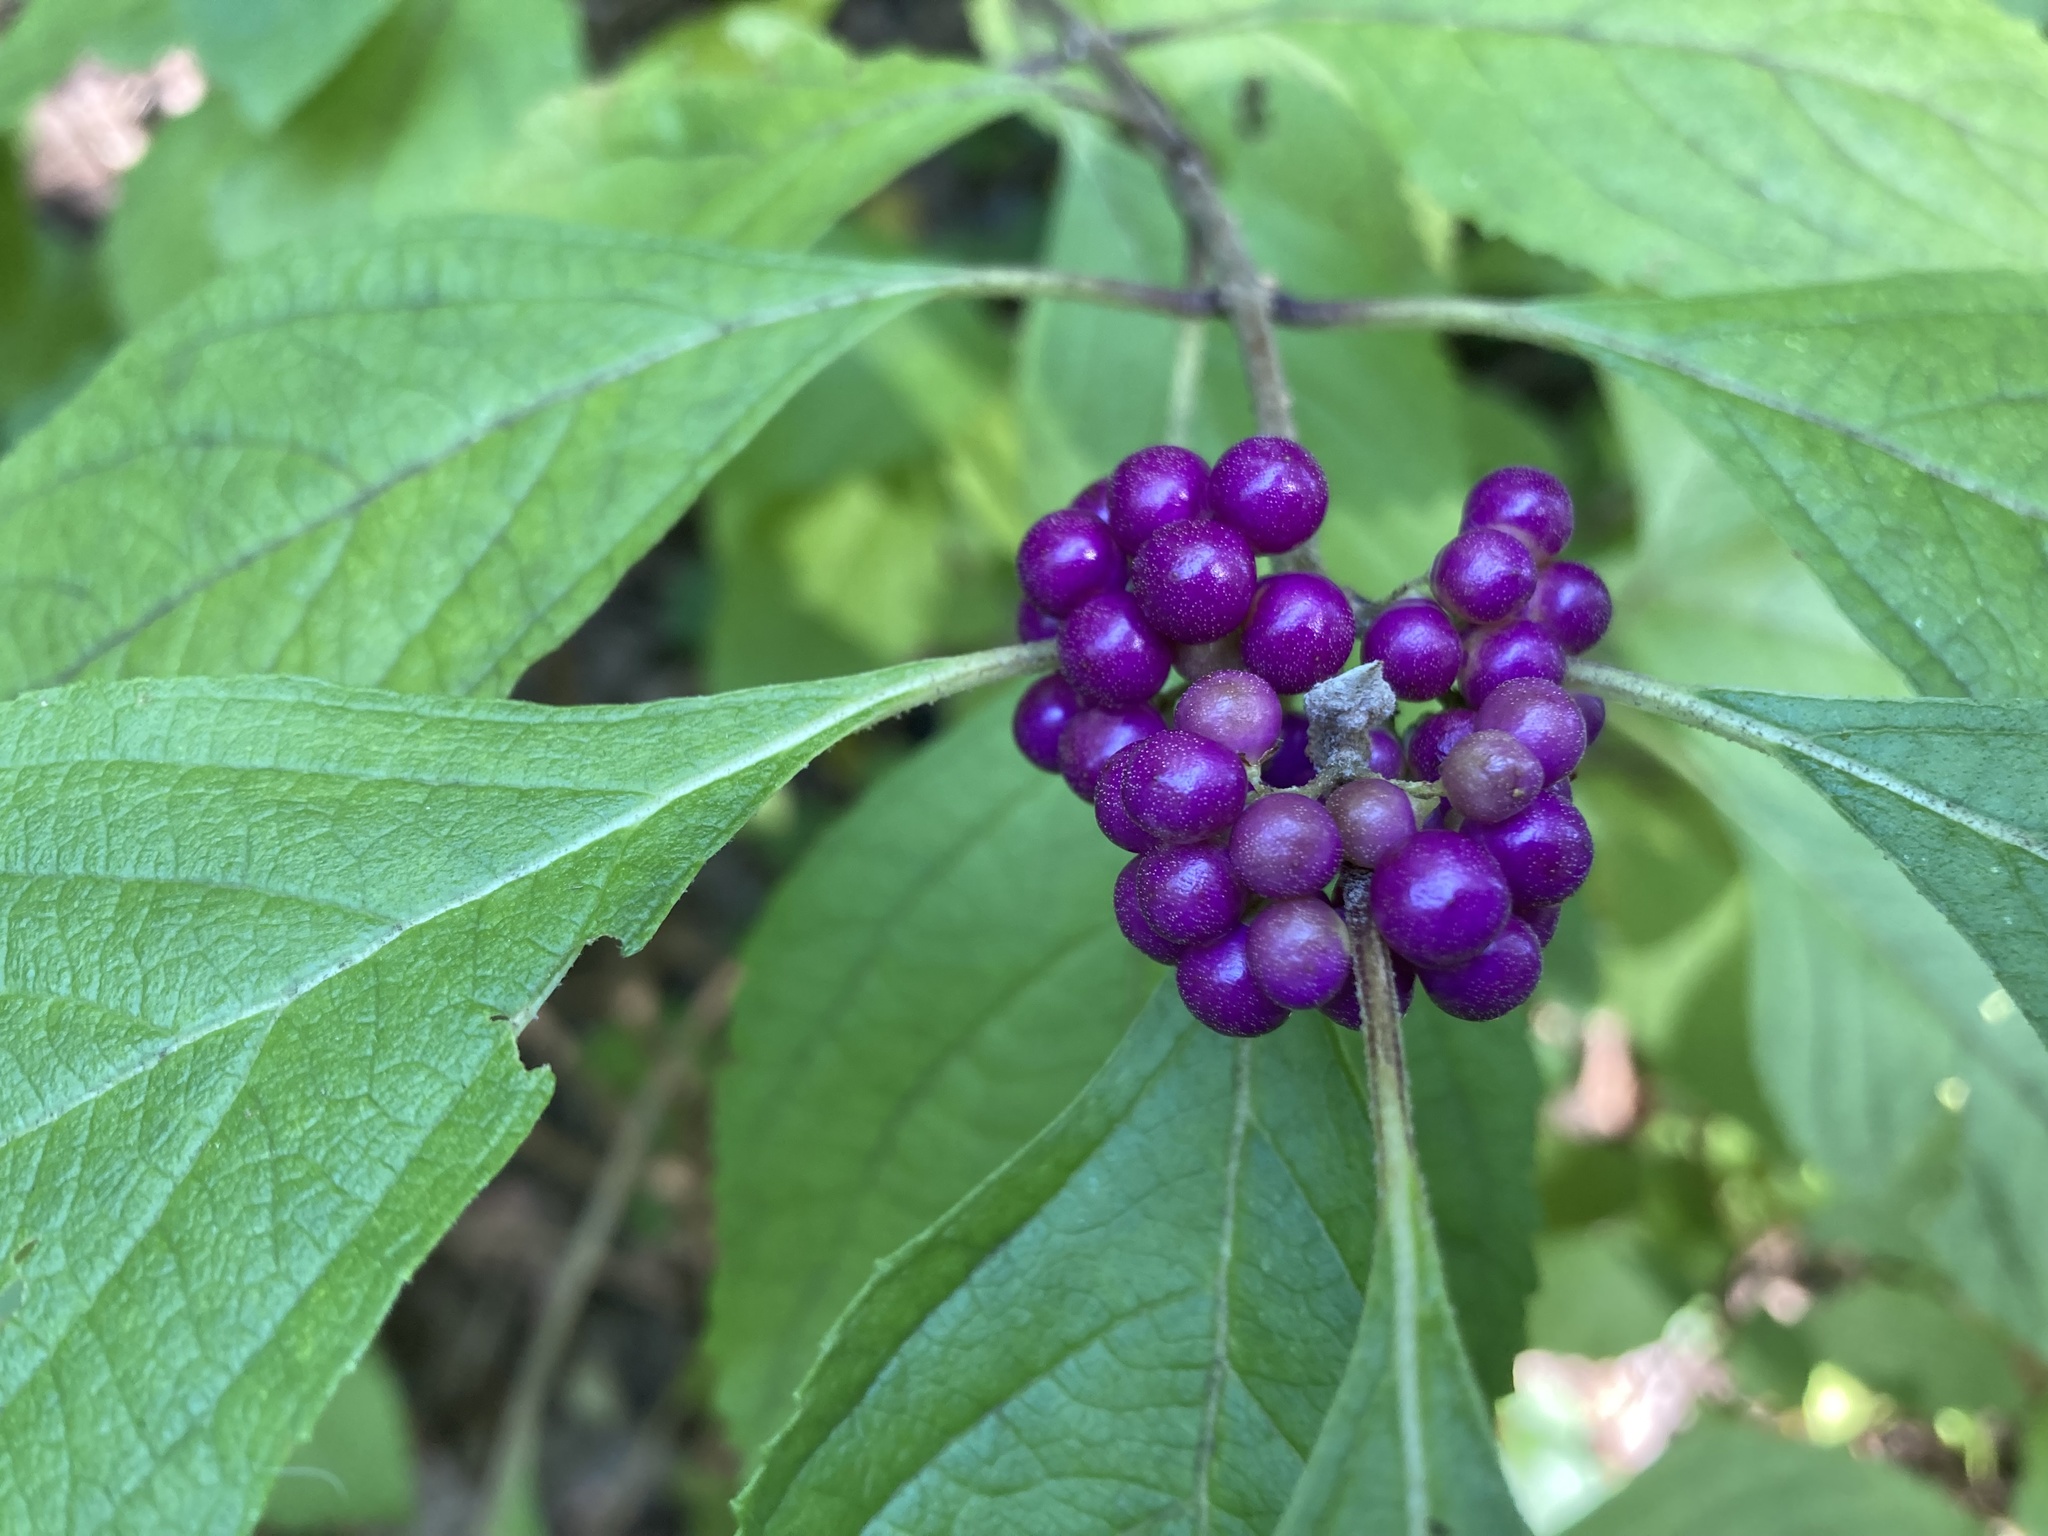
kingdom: Plantae
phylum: Tracheophyta
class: Magnoliopsida
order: Lamiales
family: Lamiaceae
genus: Callicarpa
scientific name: Callicarpa americana
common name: American beautyberry
